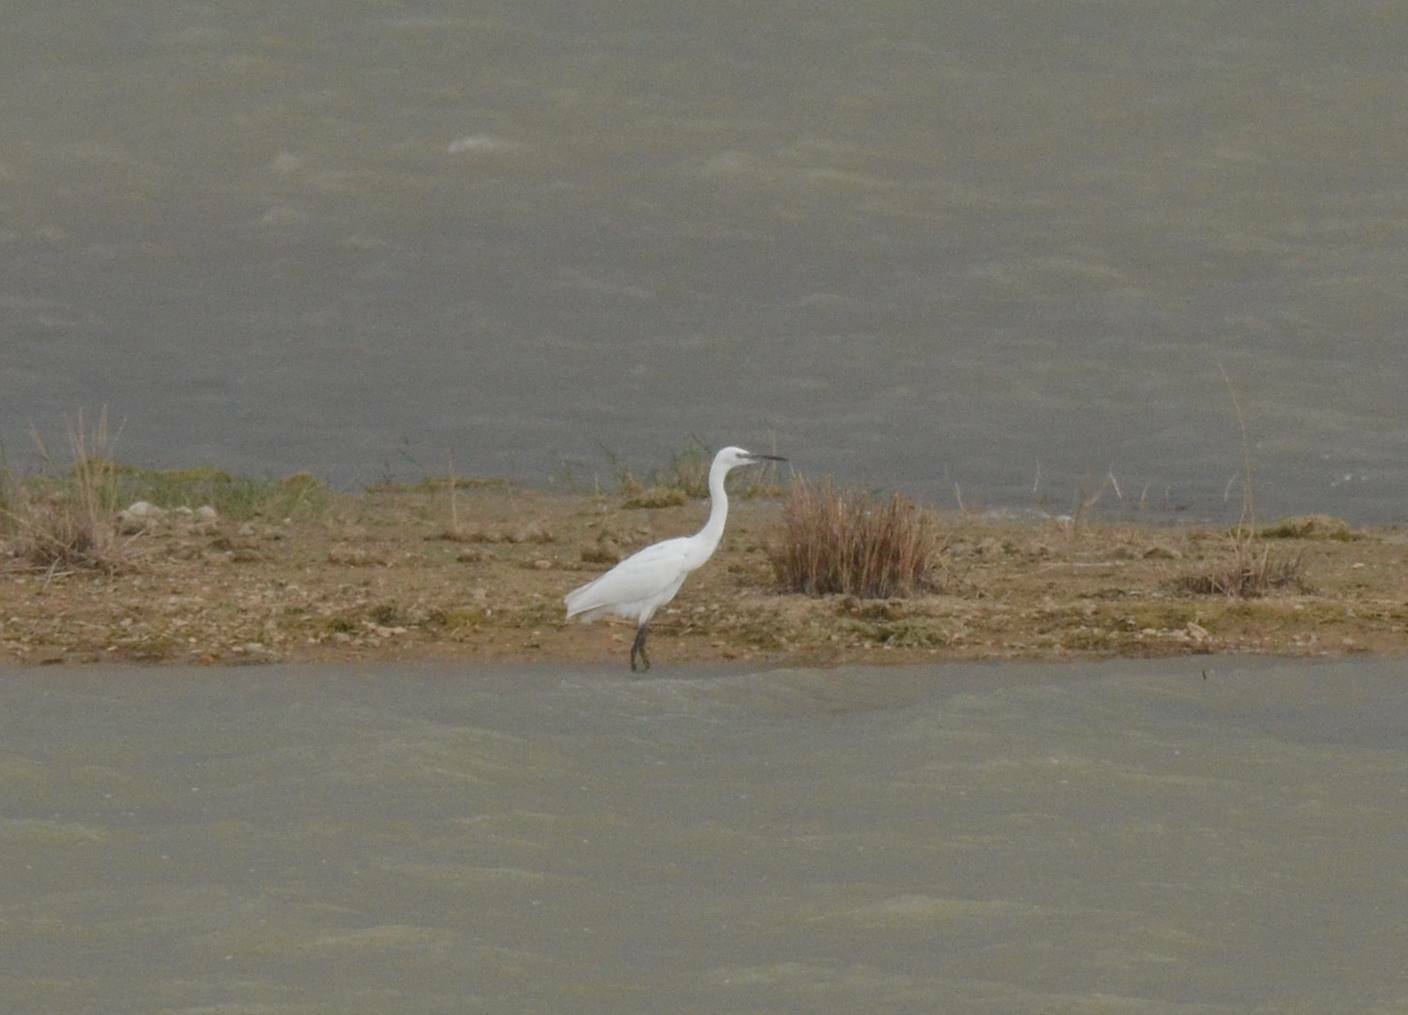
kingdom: Animalia
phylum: Chordata
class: Aves
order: Pelecaniformes
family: Ardeidae
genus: Egretta
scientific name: Egretta garzetta
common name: Little egret
